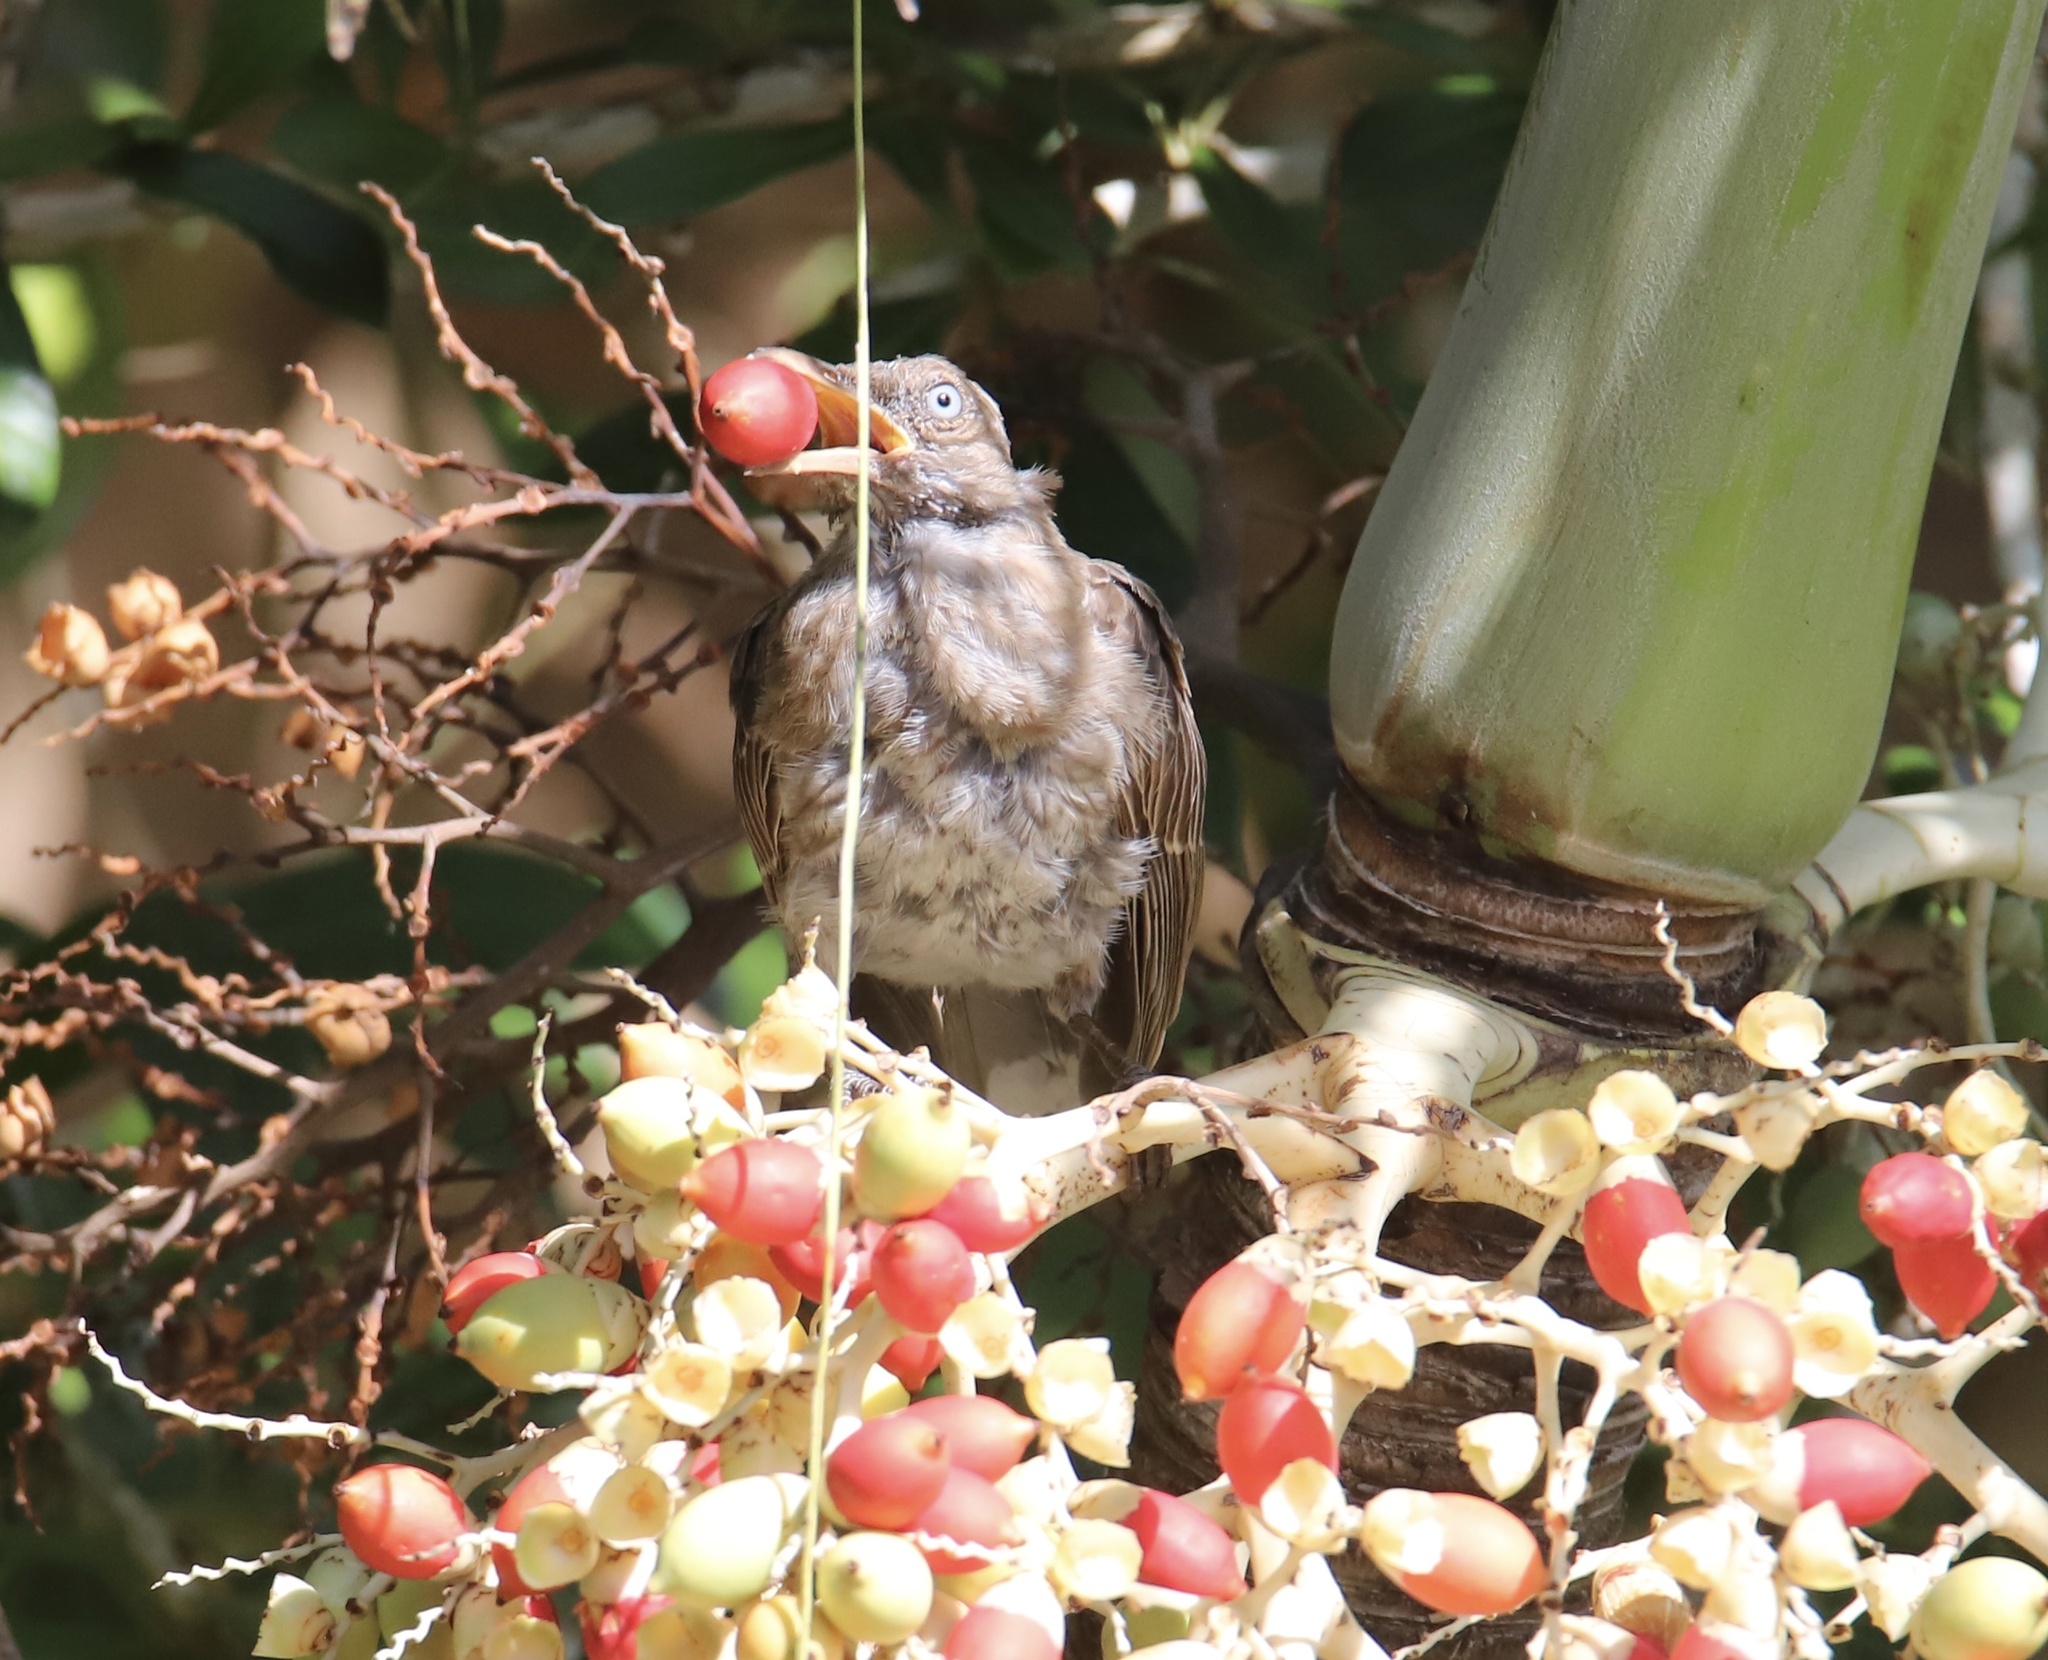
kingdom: Animalia
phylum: Chordata
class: Aves
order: Passeriformes
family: Mimidae
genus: Margarops
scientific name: Margarops fuscatus
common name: Pearly-eyed thrasher
